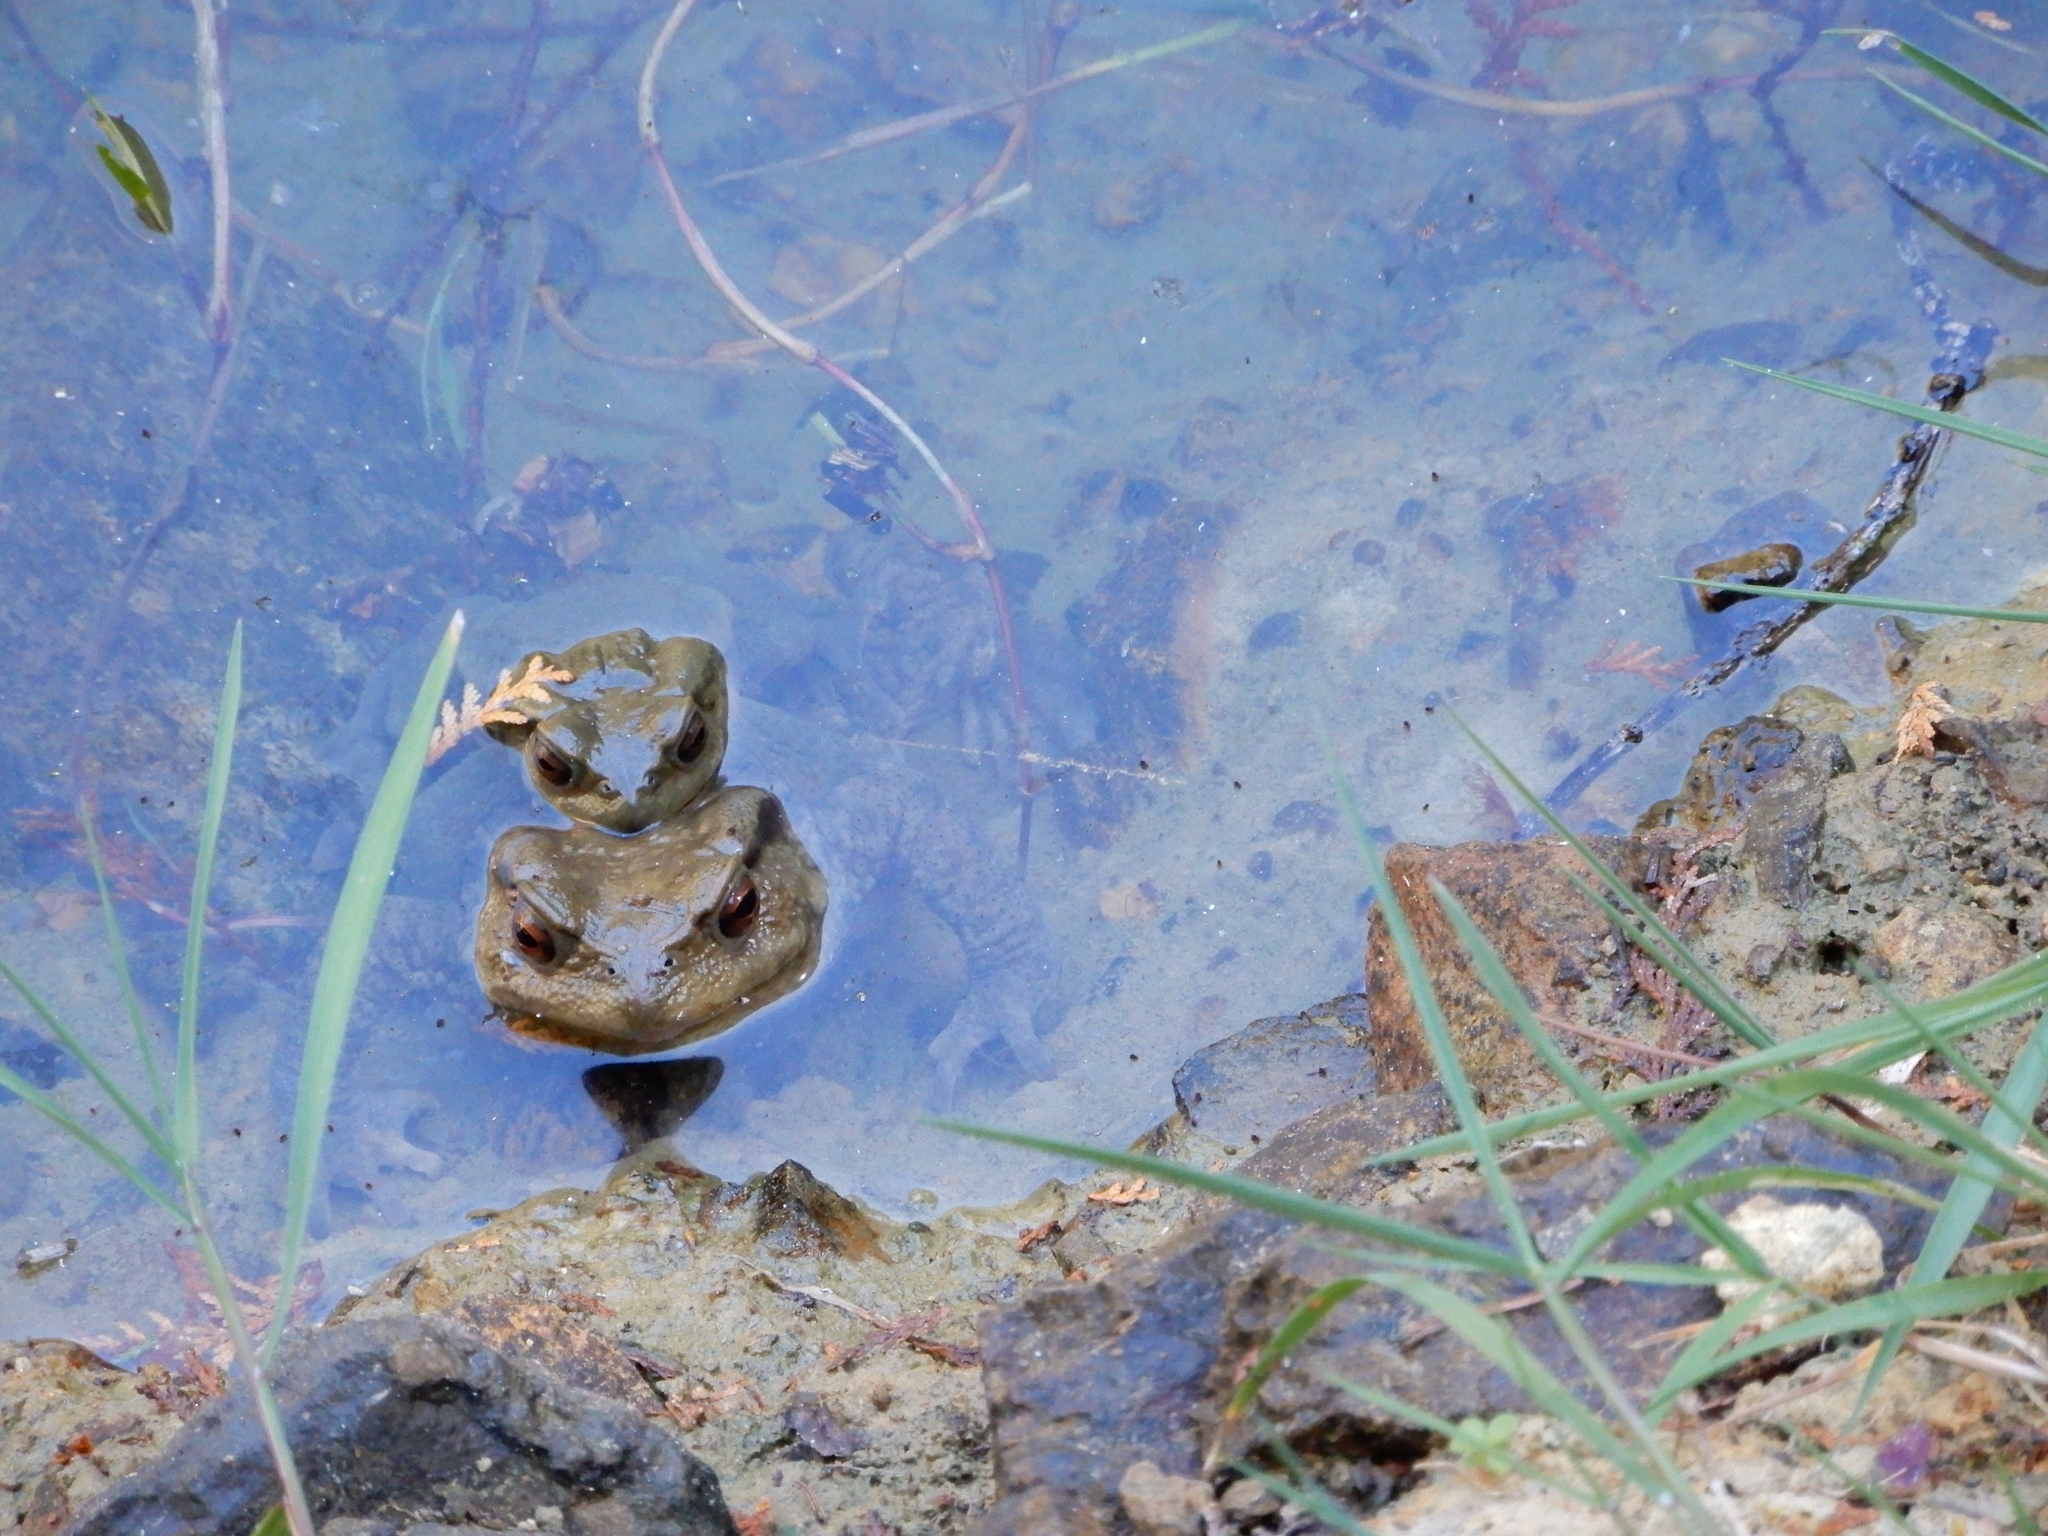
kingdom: Animalia
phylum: Chordata
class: Amphibia
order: Anura
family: Bufonidae
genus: Bufo
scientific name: Bufo bankorensis
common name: Bankor toad
